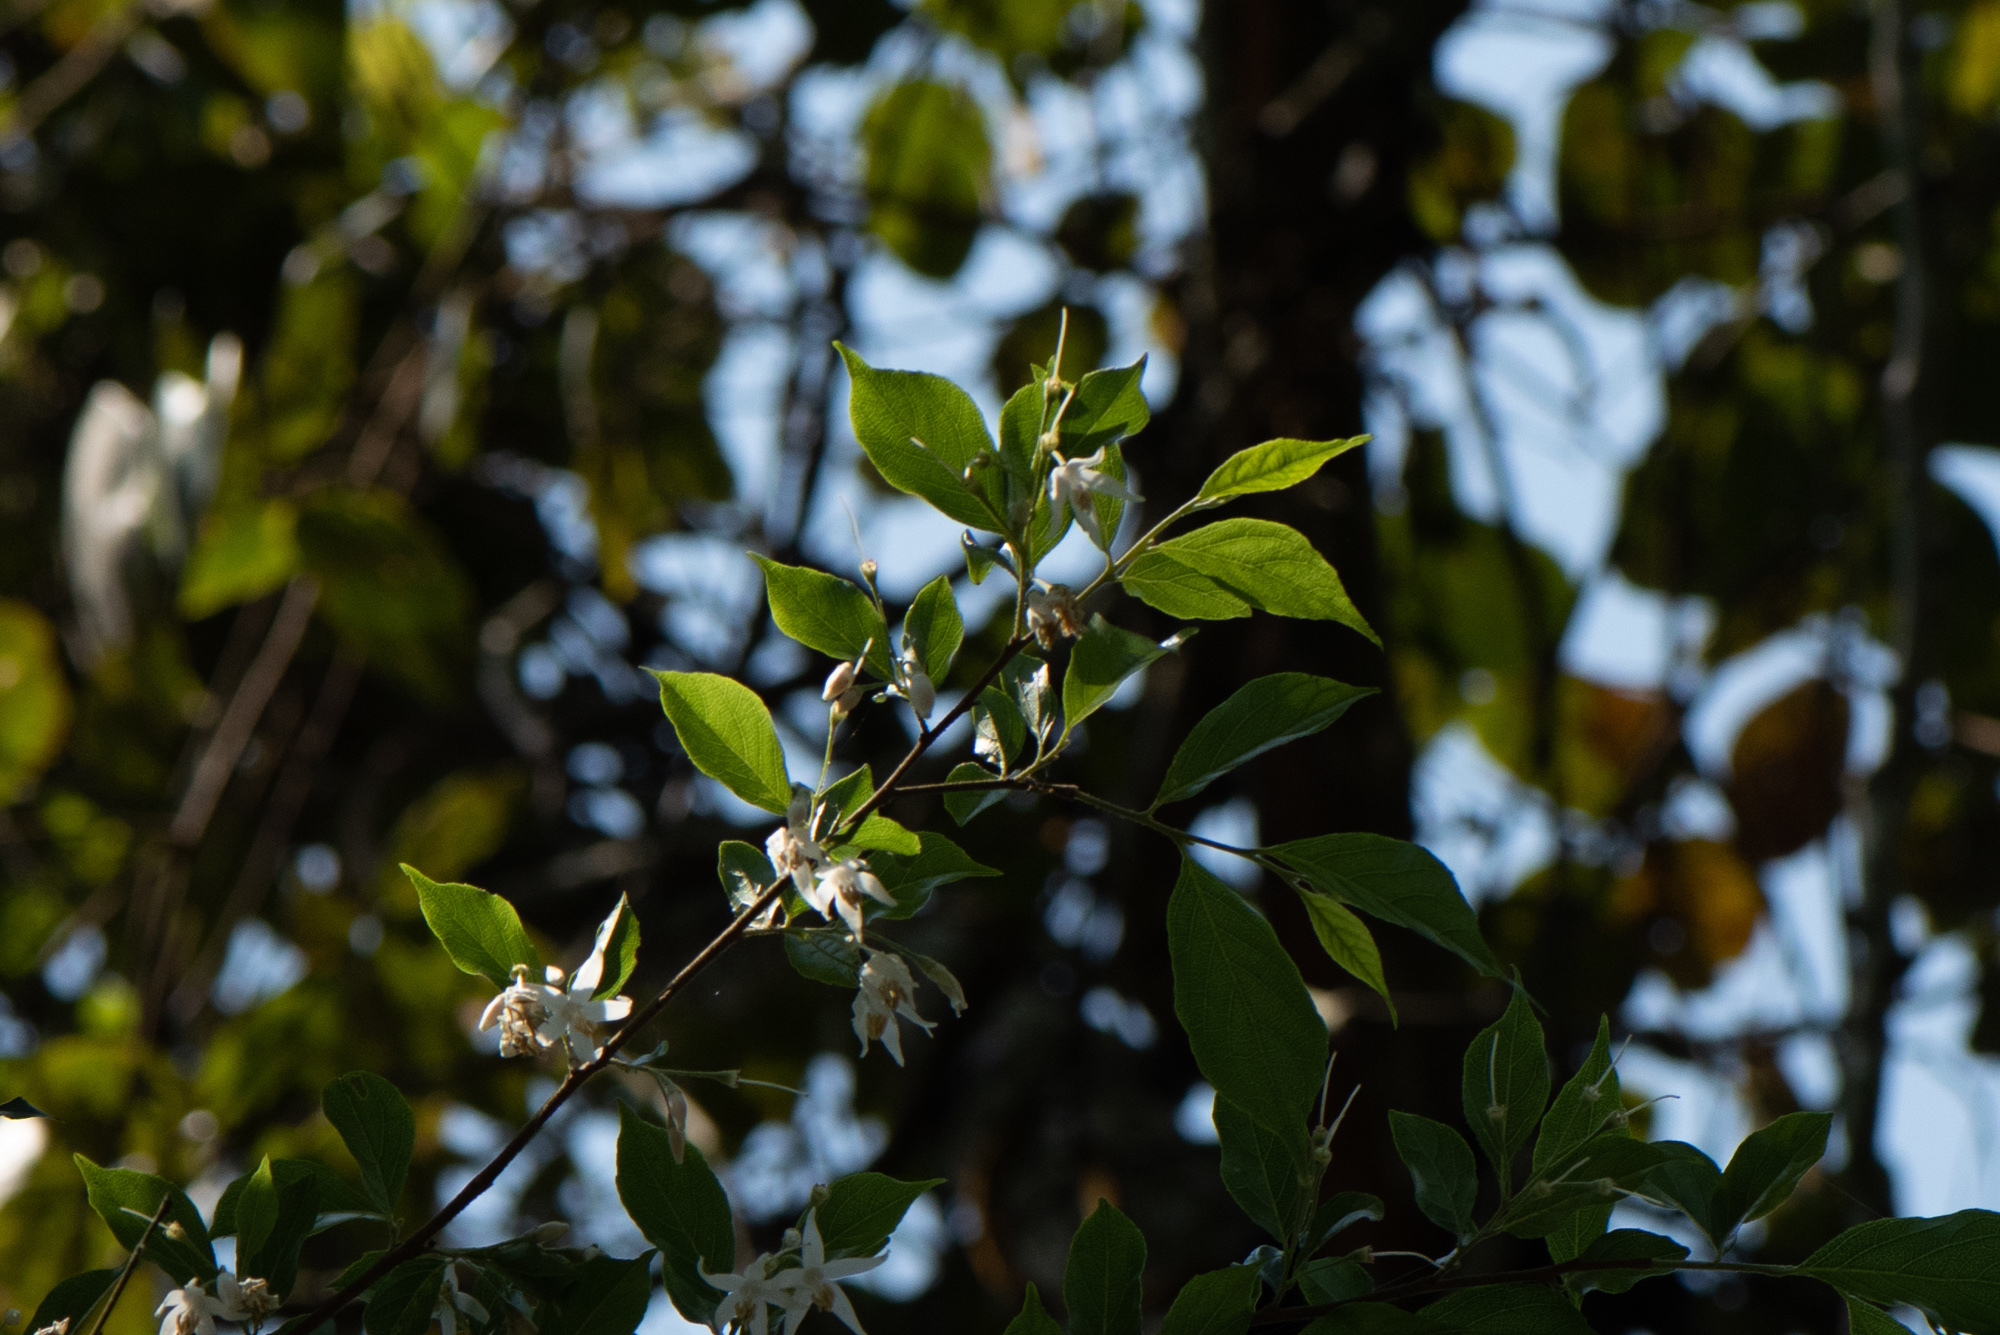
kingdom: Plantae
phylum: Tracheophyta
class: Magnoliopsida
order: Ericales
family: Styracaceae
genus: Styrax
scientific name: Styrax formosanus
